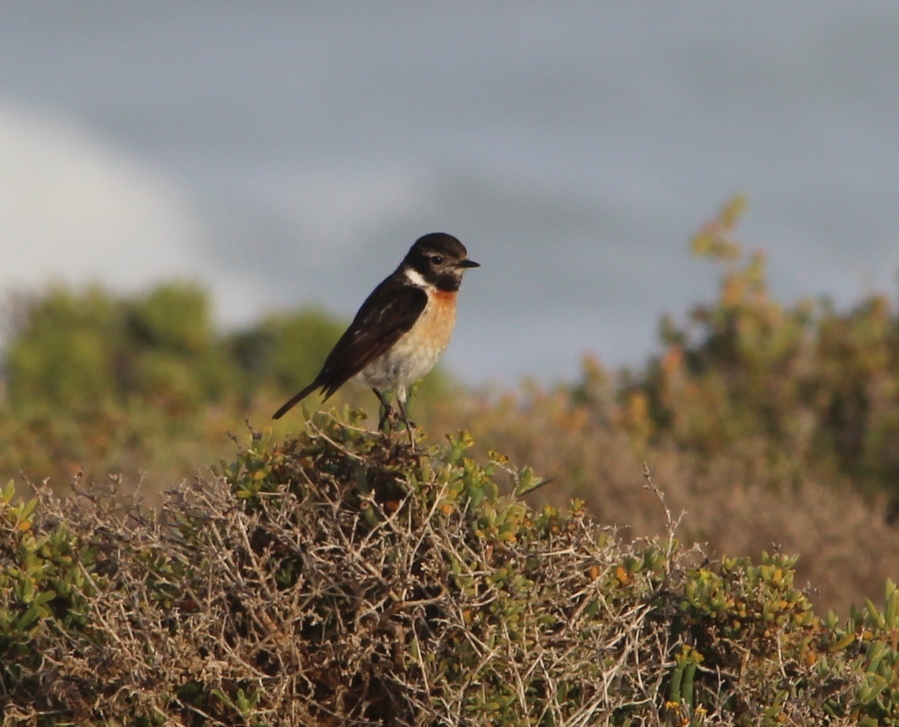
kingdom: Animalia
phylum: Chordata
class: Aves
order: Passeriformes
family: Muscicapidae
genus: Saxicola
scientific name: Saxicola torquatus
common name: African stonechat
